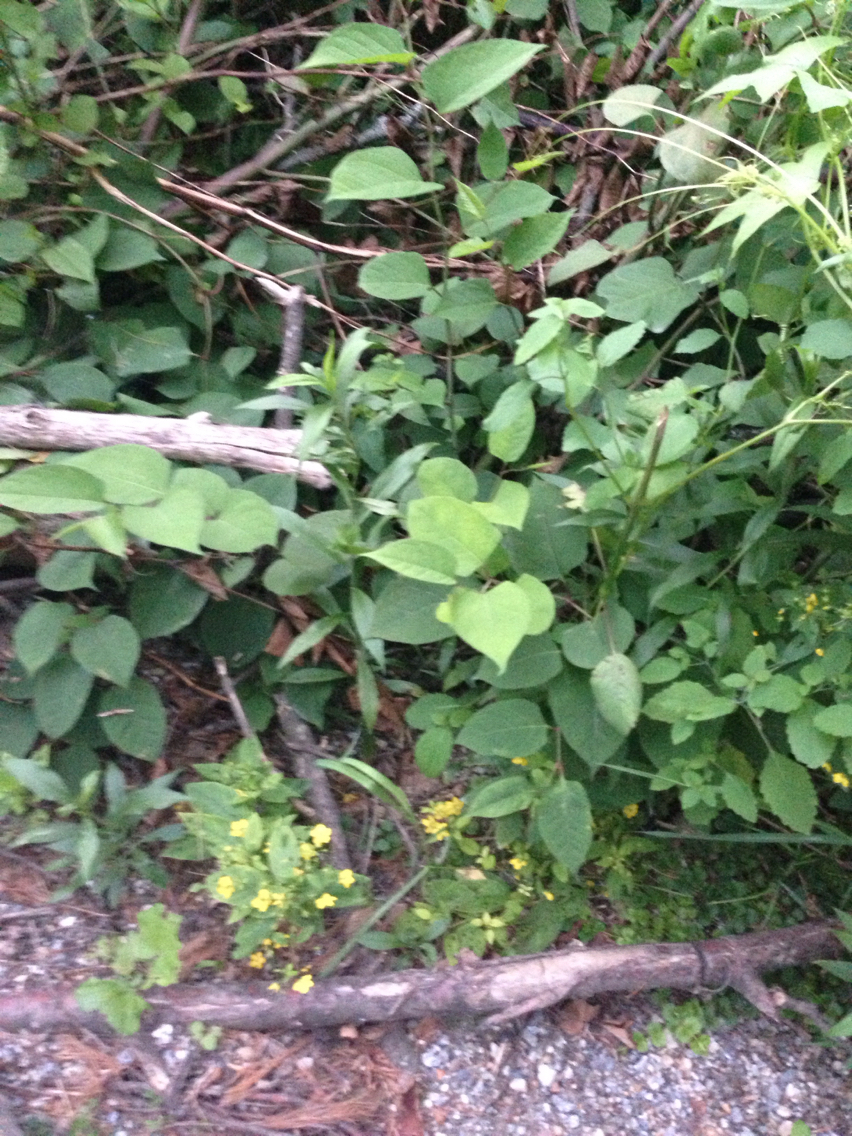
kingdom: Plantae
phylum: Tracheophyta
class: Magnoliopsida
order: Caryophyllales
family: Polygonaceae
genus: Reynoutria
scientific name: Reynoutria japonica
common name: Japanese knotweed
